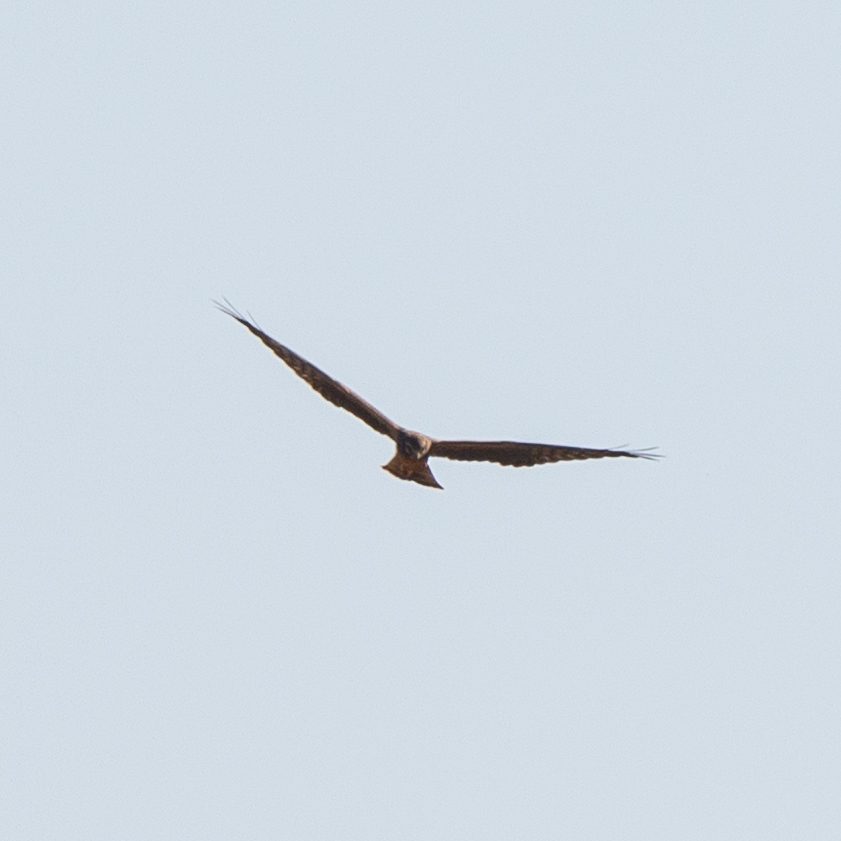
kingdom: Animalia
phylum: Chordata
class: Aves
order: Accipitriformes
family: Accipitridae
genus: Circus
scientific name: Circus pygargus
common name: Montagu's harrier
